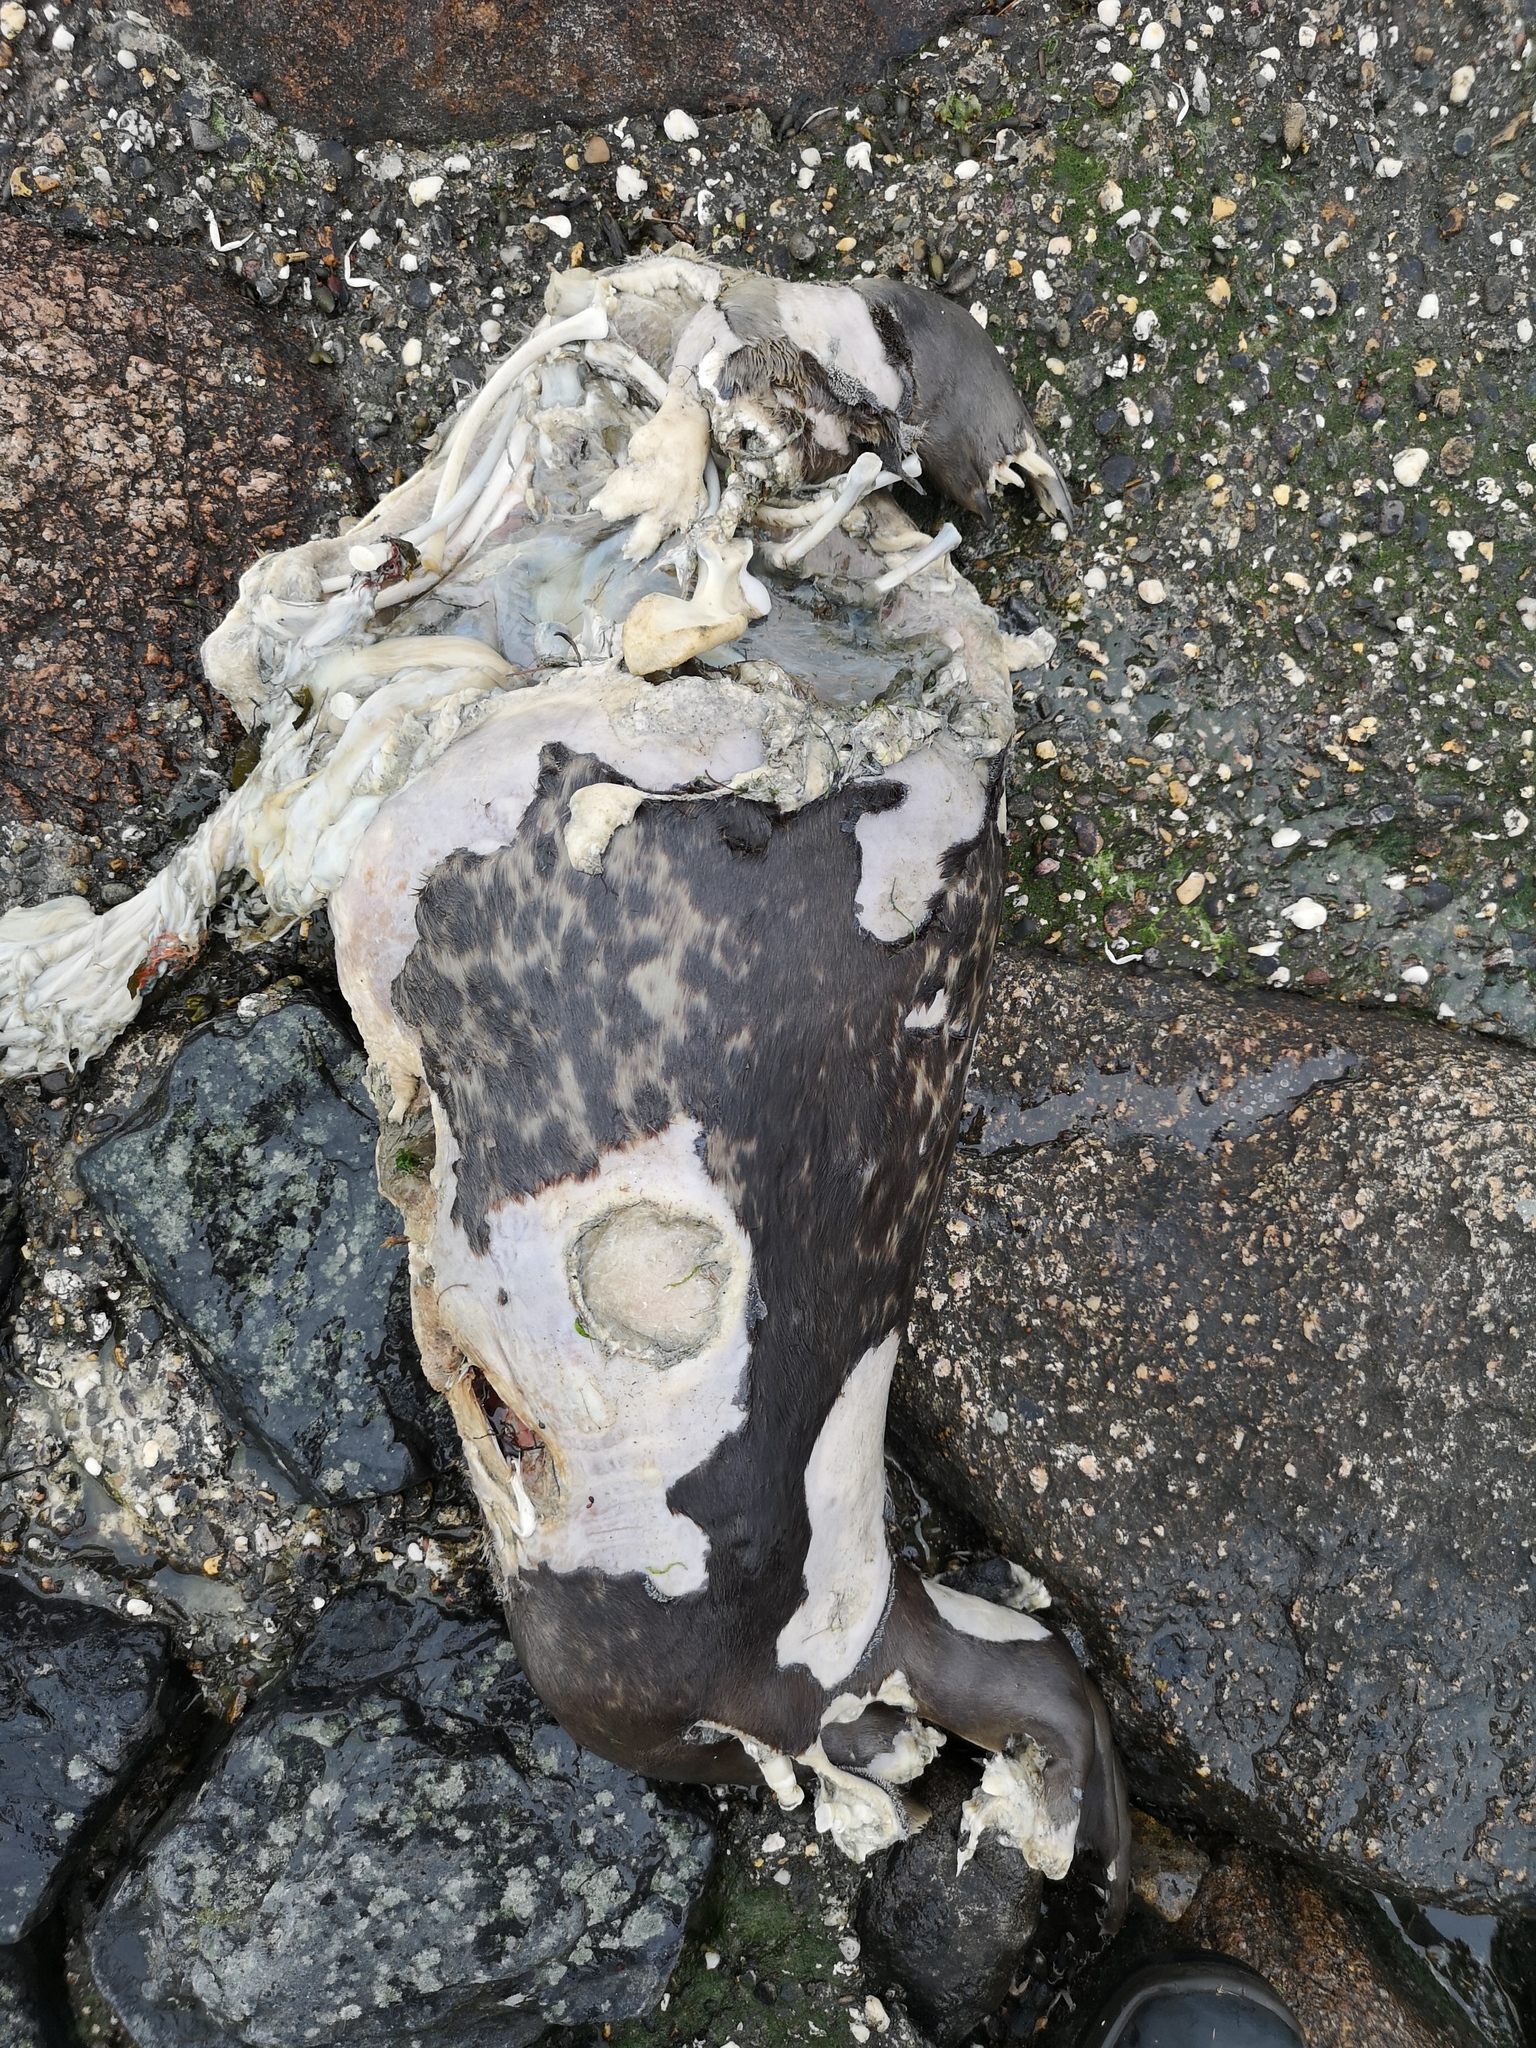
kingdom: Animalia
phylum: Chordata
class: Mammalia
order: Carnivora
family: Phocidae
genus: Phoca
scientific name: Phoca vitulina
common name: Harbor seal
